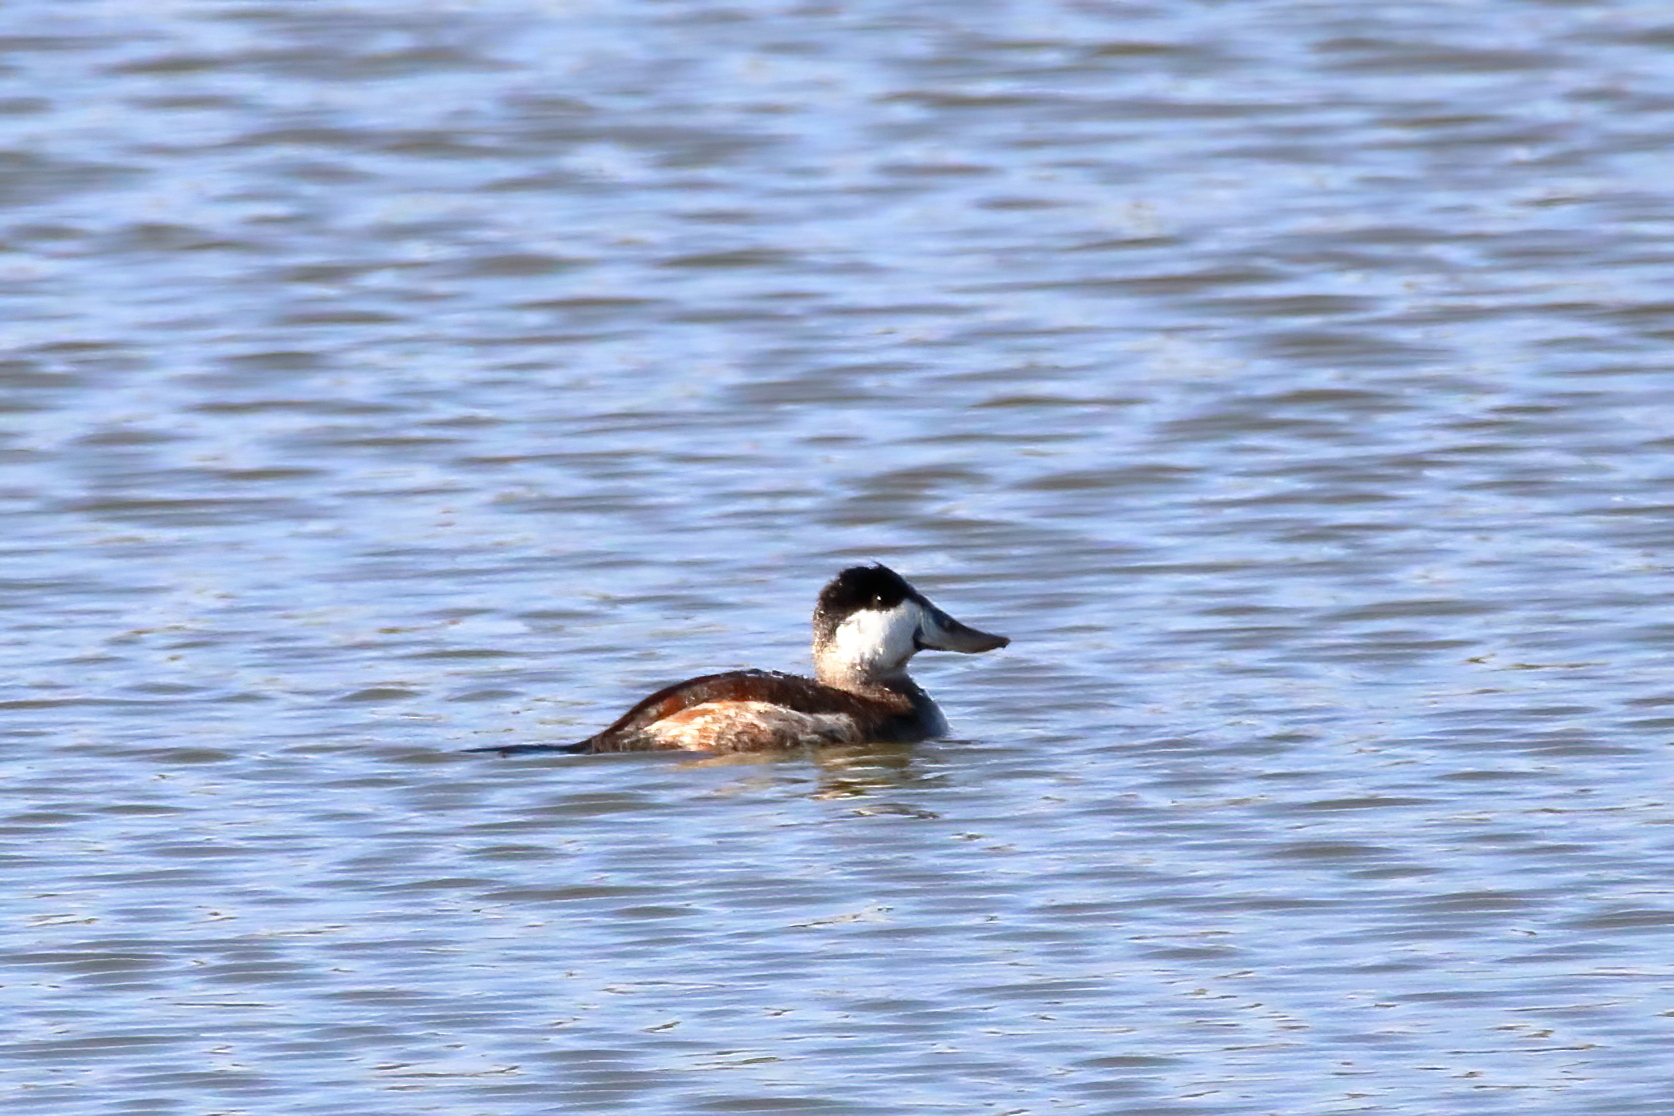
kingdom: Animalia
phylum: Chordata
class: Aves
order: Anseriformes
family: Anatidae
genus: Oxyura
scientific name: Oxyura jamaicensis
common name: Ruddy duck
